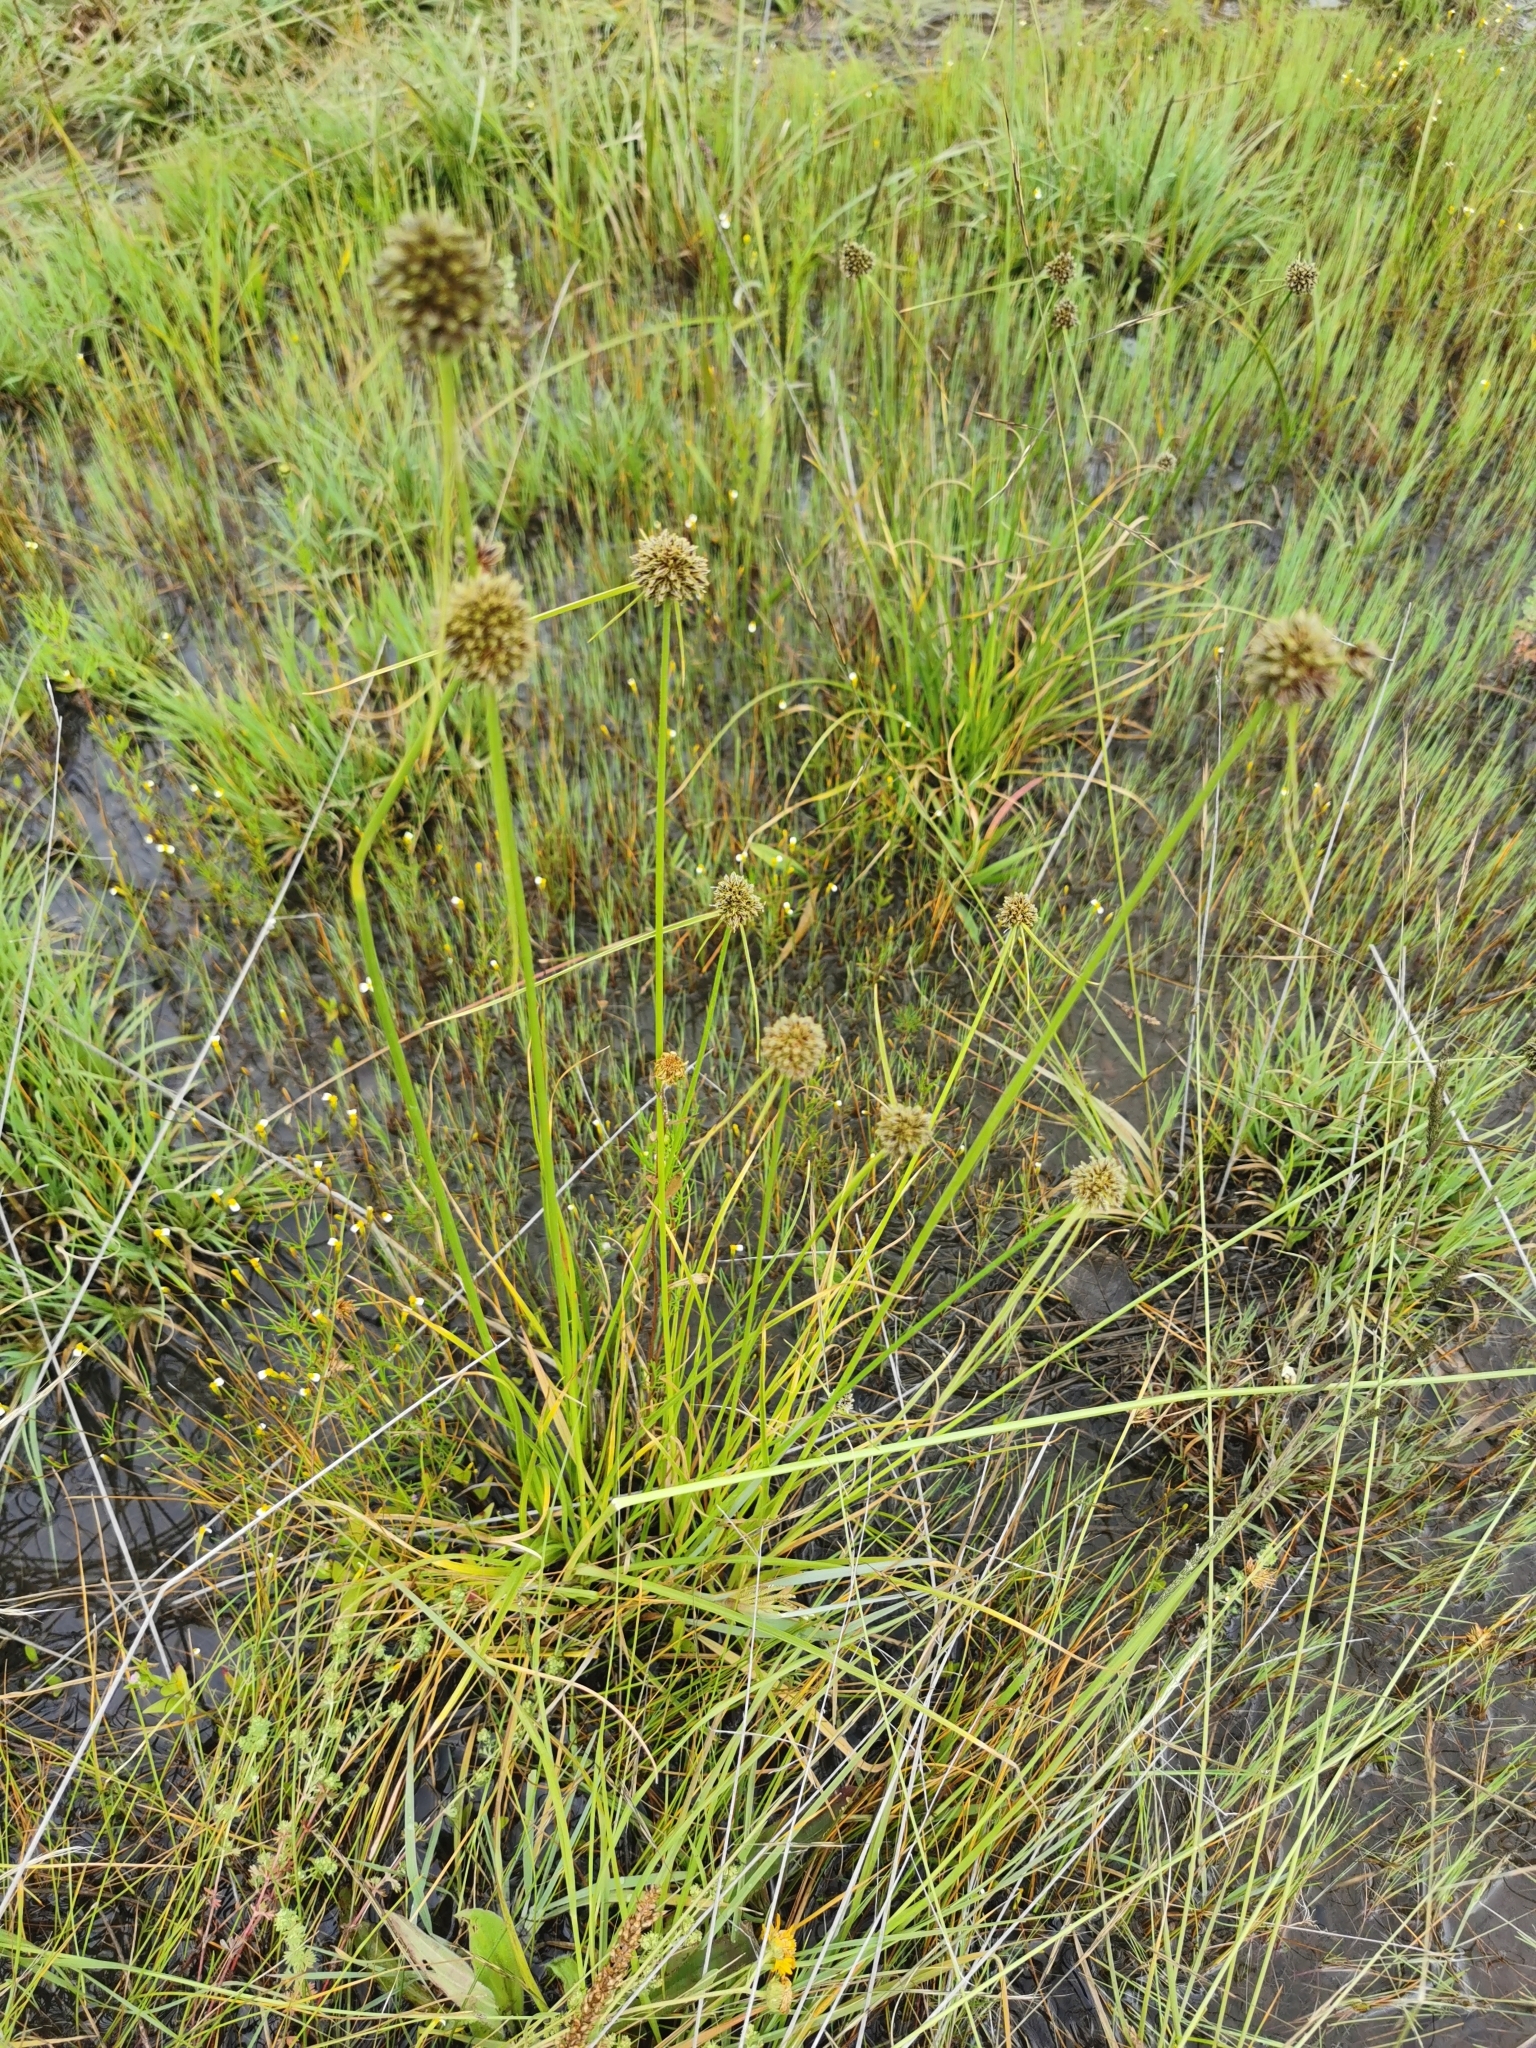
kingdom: Plantae
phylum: Tracheophyta
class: Liliopsida
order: Poales
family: Cyperaceae
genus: Scirpoides
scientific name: Scirpoides mexicana
